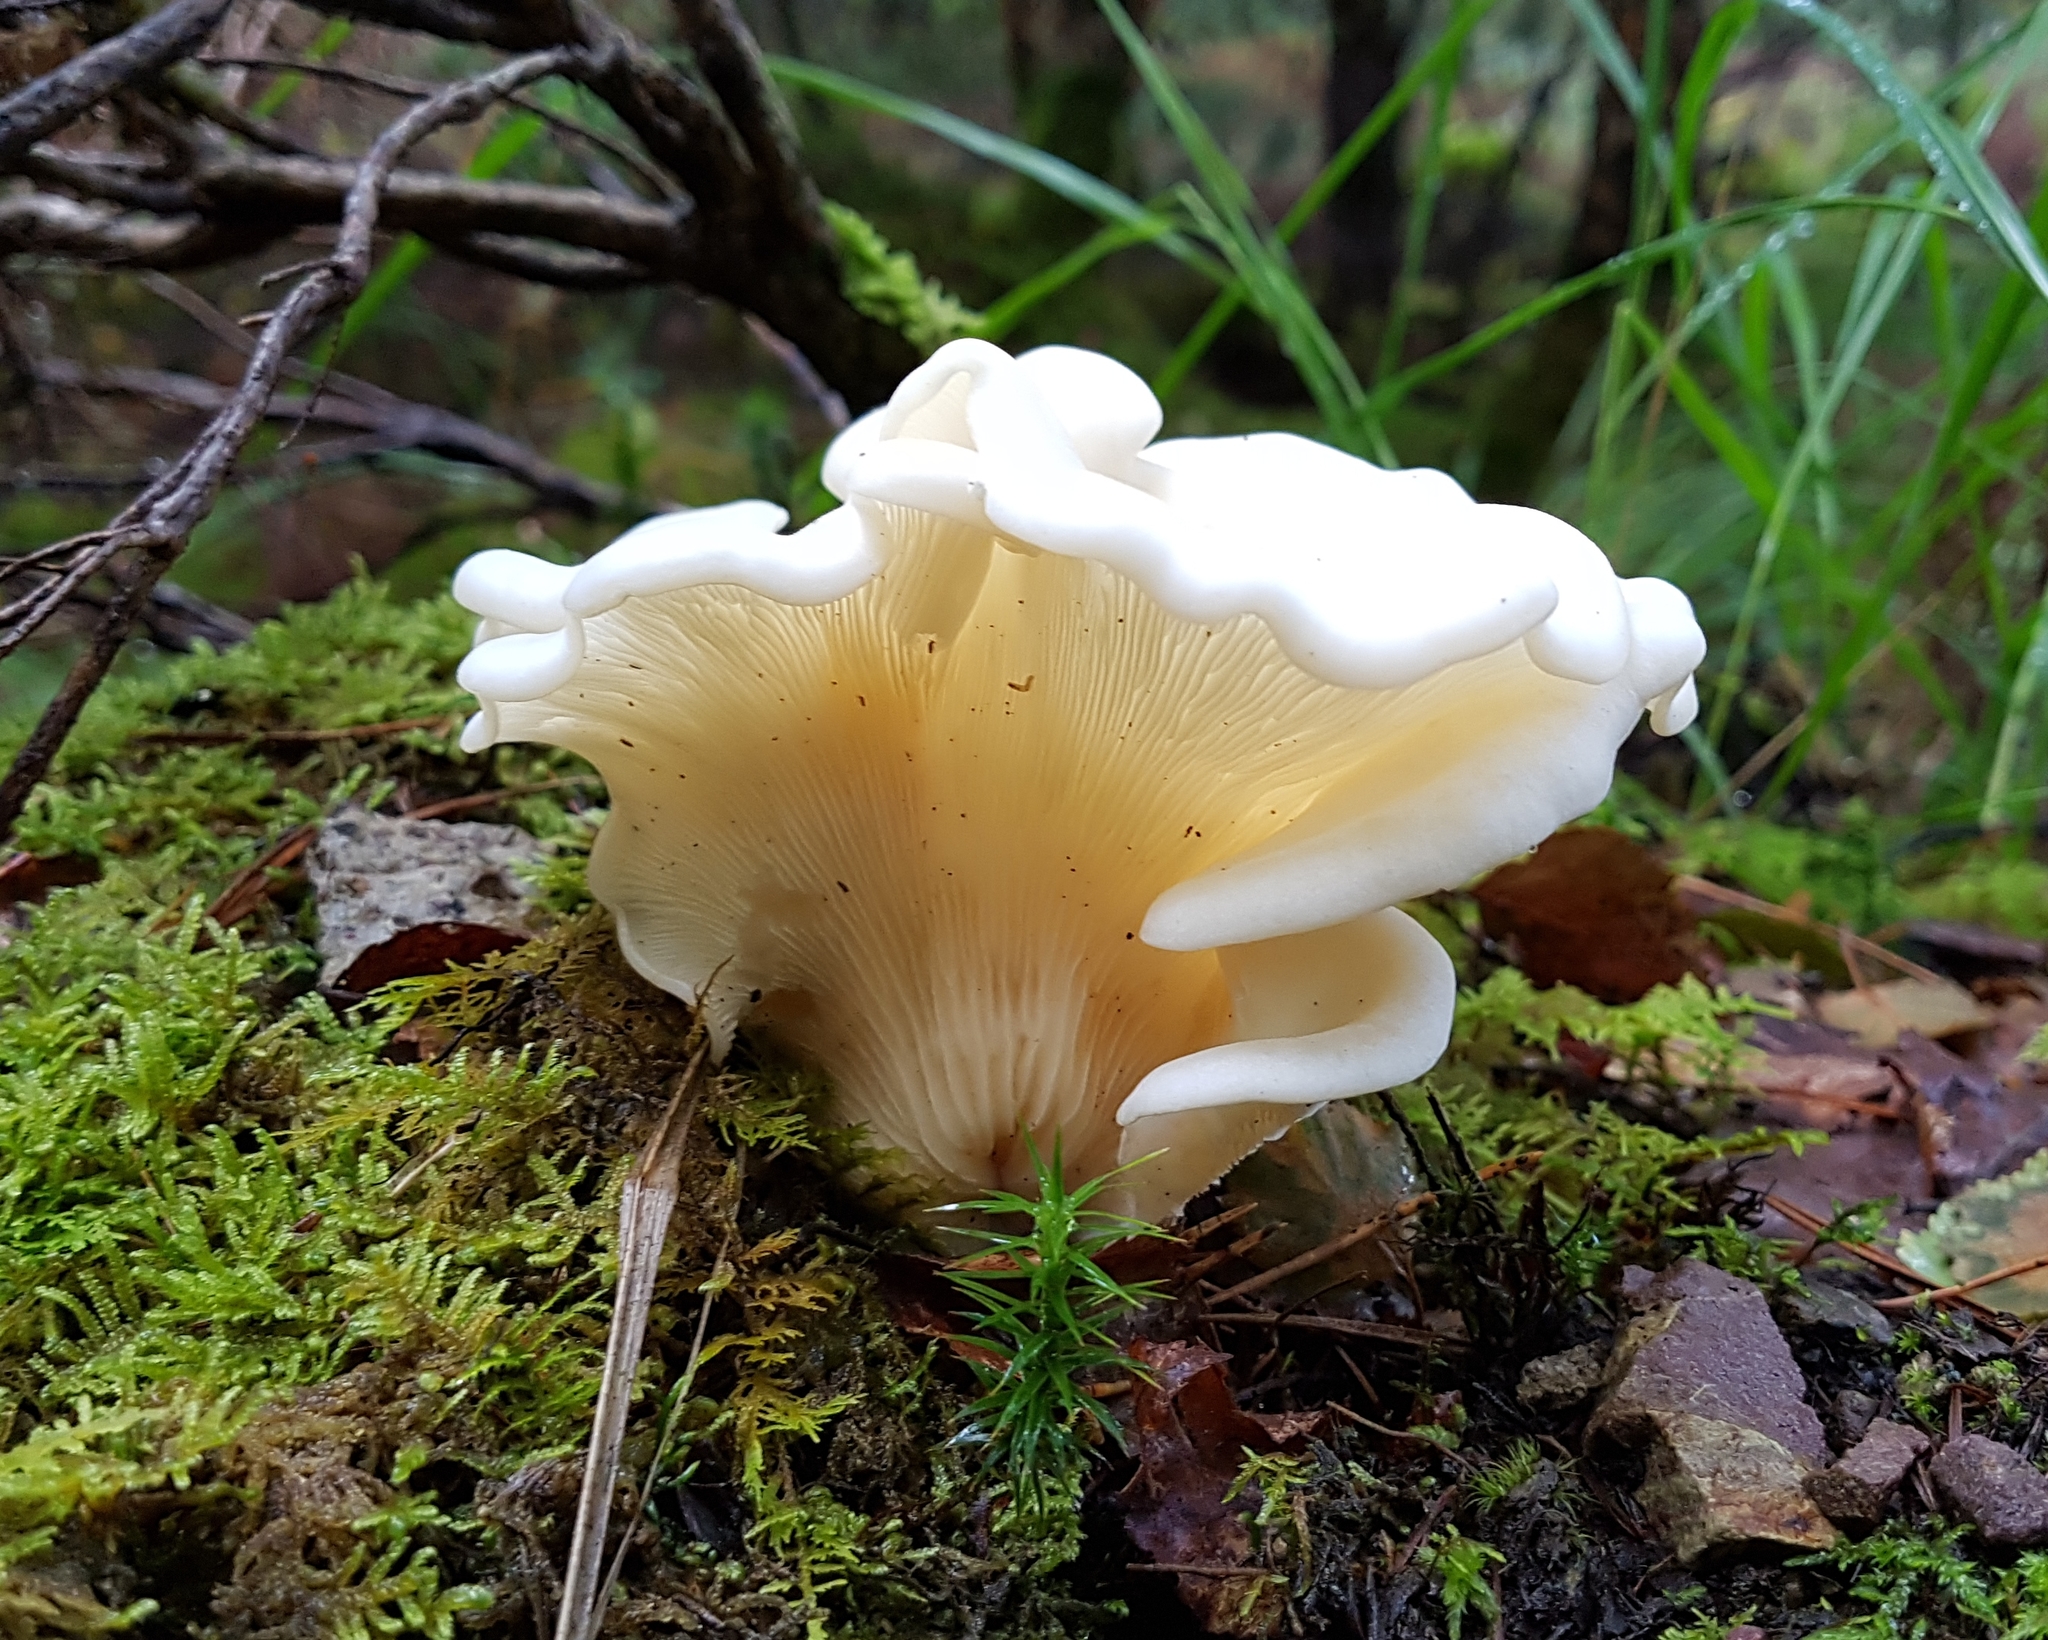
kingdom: Fungi
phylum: Basidiomycota
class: Agaricomycetes
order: Agaricales
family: Marasmiaceae
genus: Pleurocybella
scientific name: Pleurocybella porrigens
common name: Angel's wings
